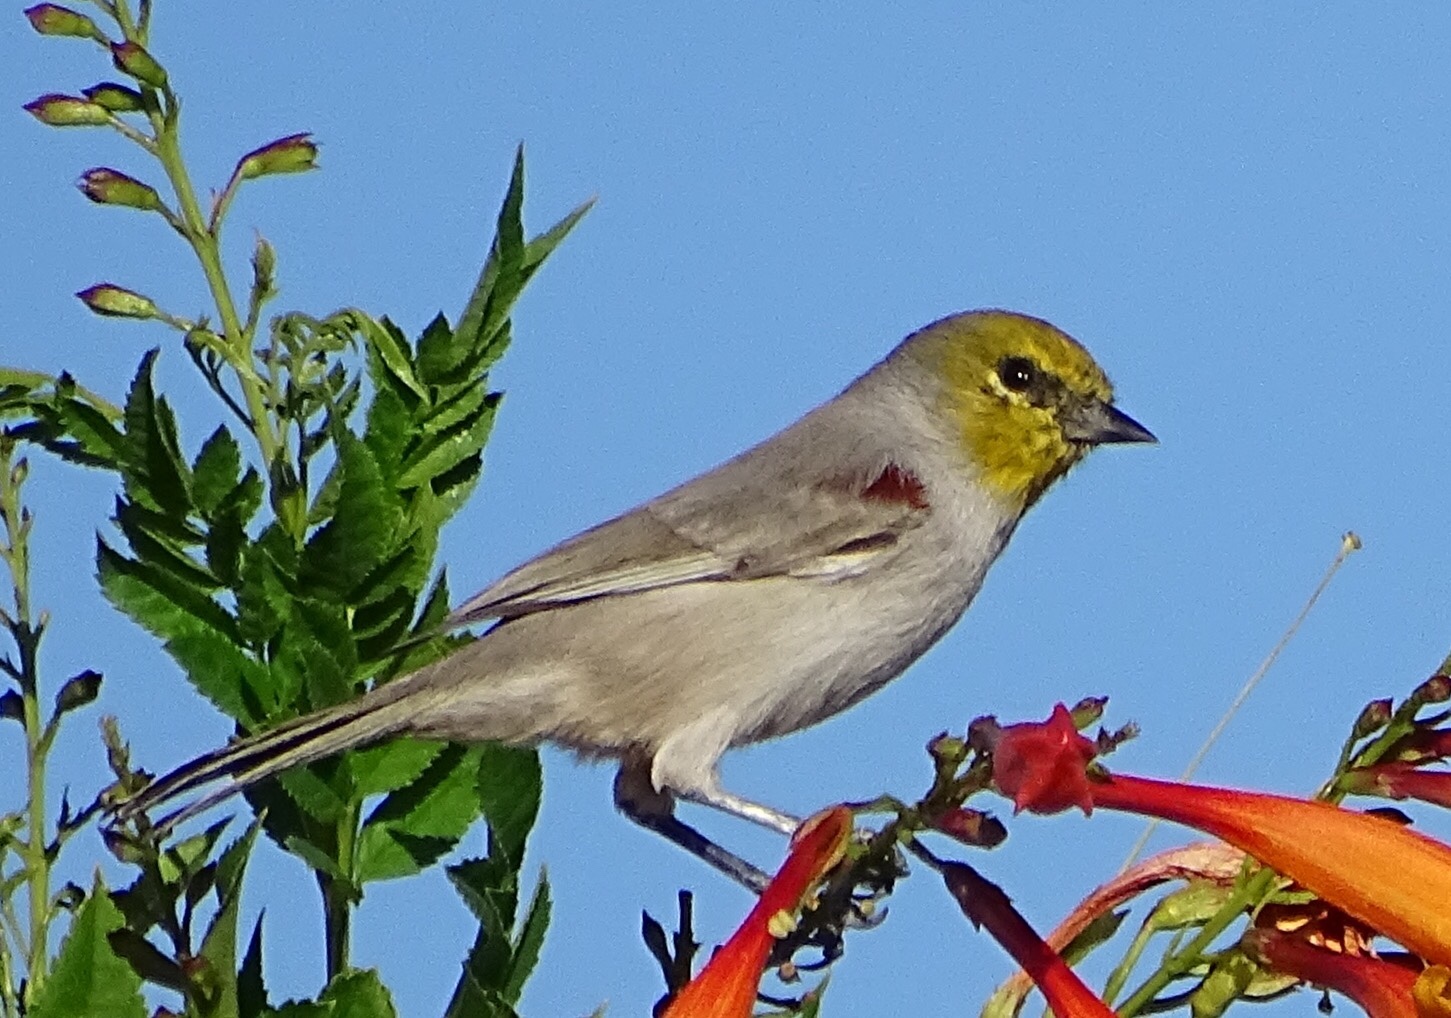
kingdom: Animalia
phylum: Chordata
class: Aves
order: Passeriformes
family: Remizidae
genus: Auriparus
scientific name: Auriparus flaviceps
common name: Verdin
